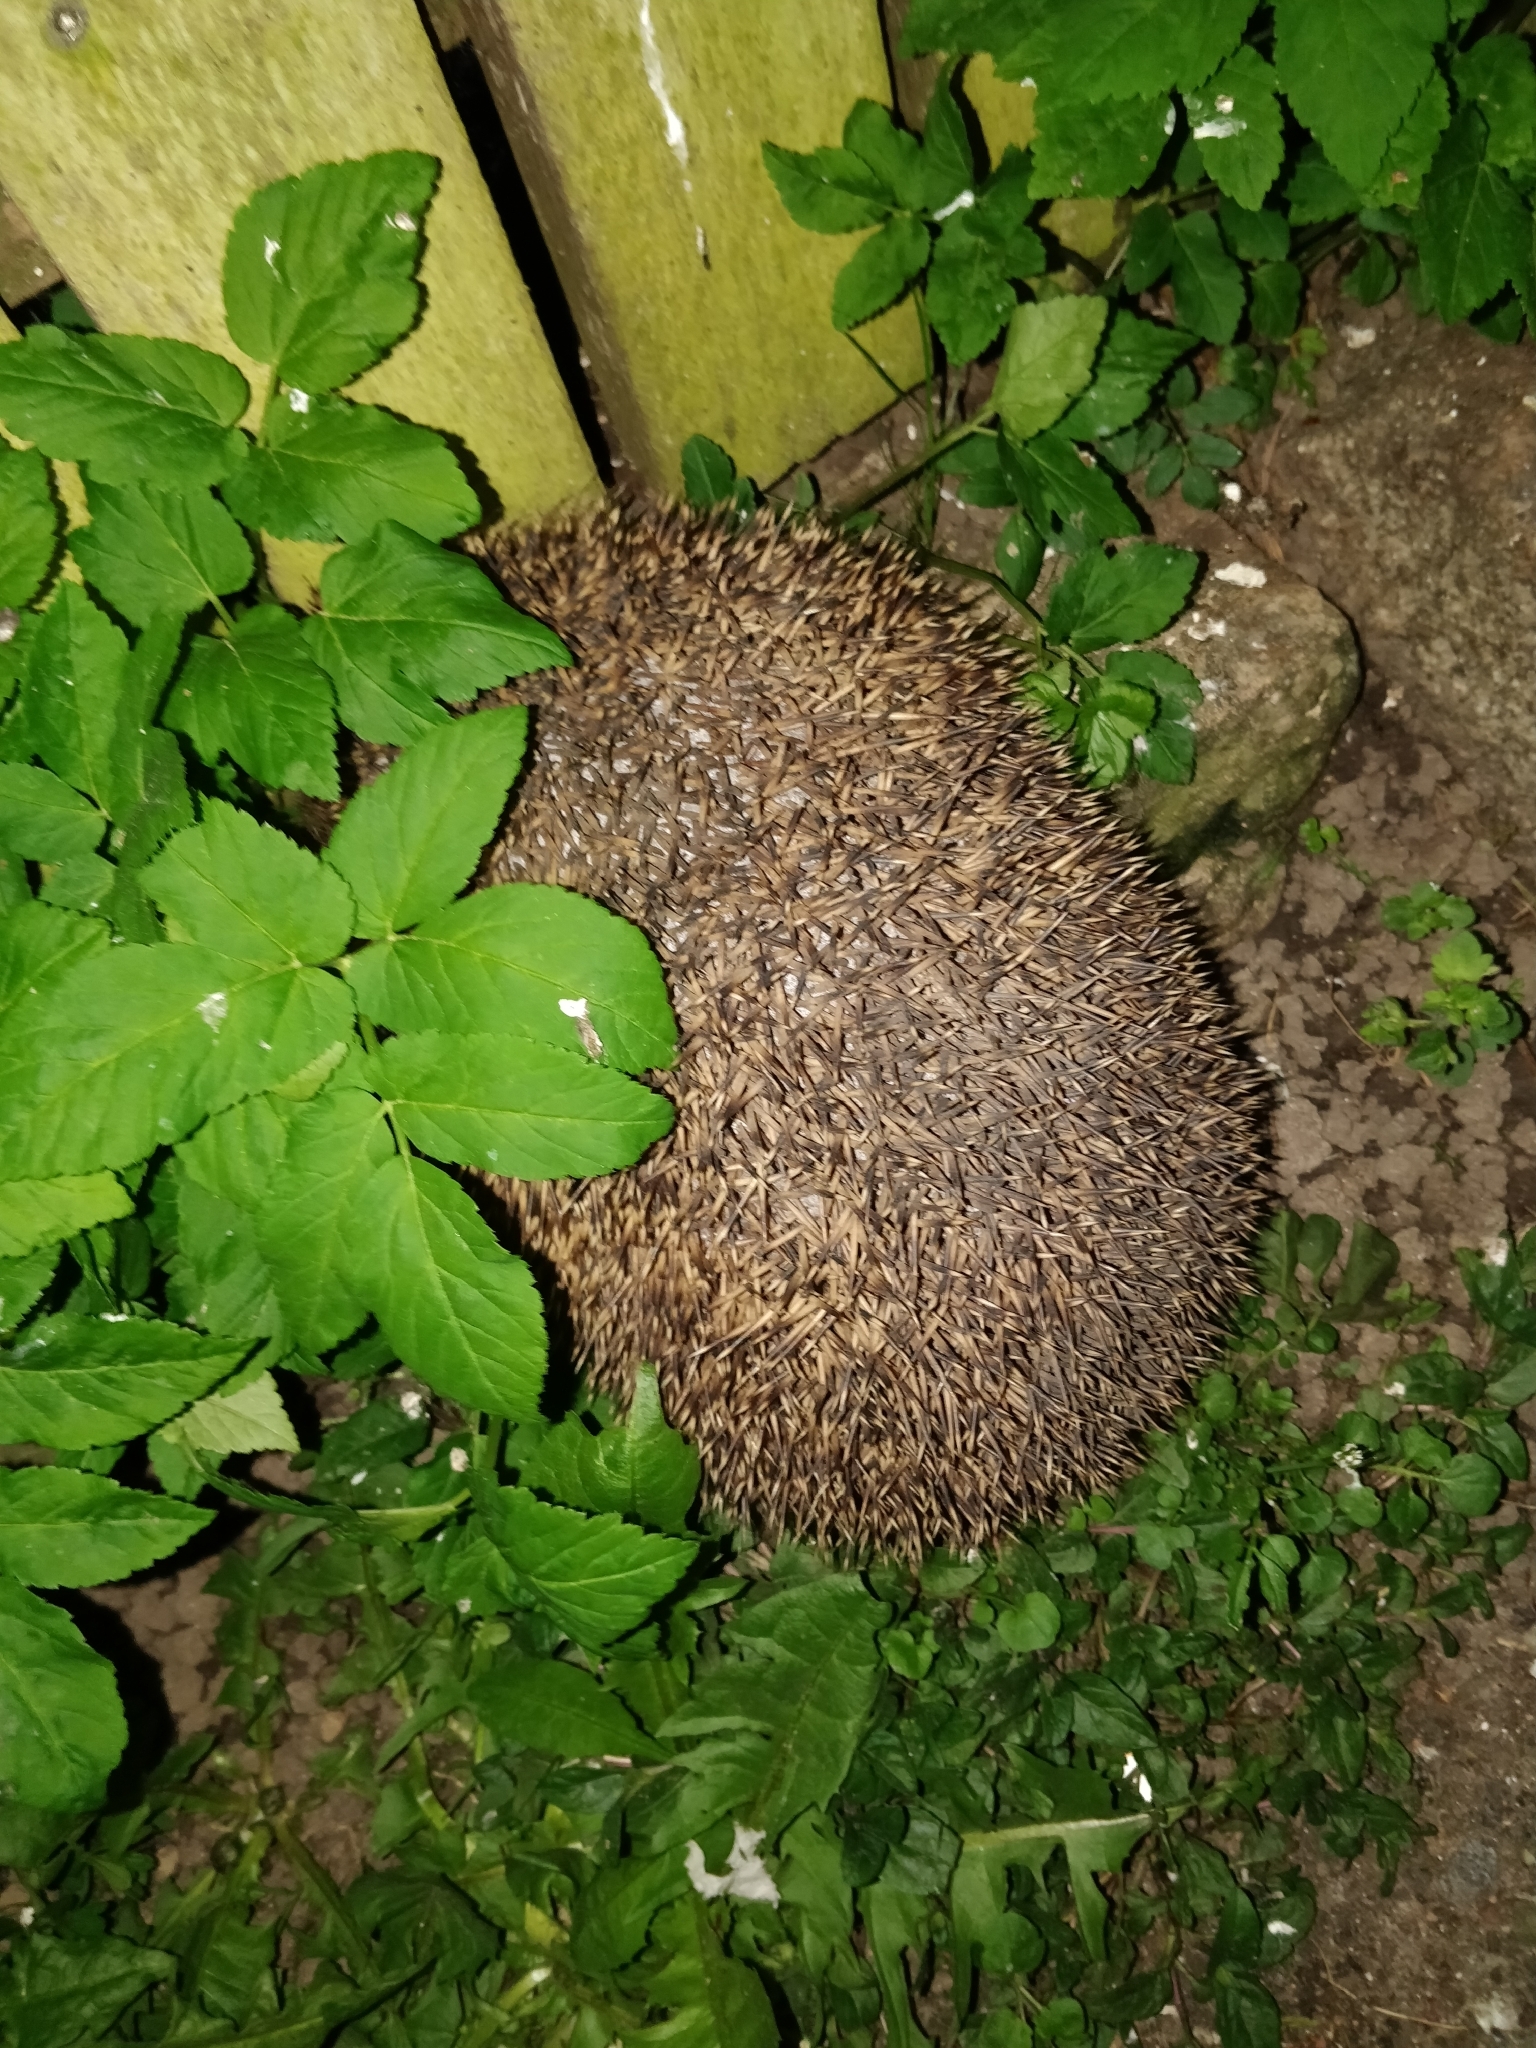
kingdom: Animalia
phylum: Chordata
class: Mammalia
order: Erinaceomorpha
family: Erinaceidae
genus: Erinaceus
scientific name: Erinaceus europaeus
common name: West european hedgehog
